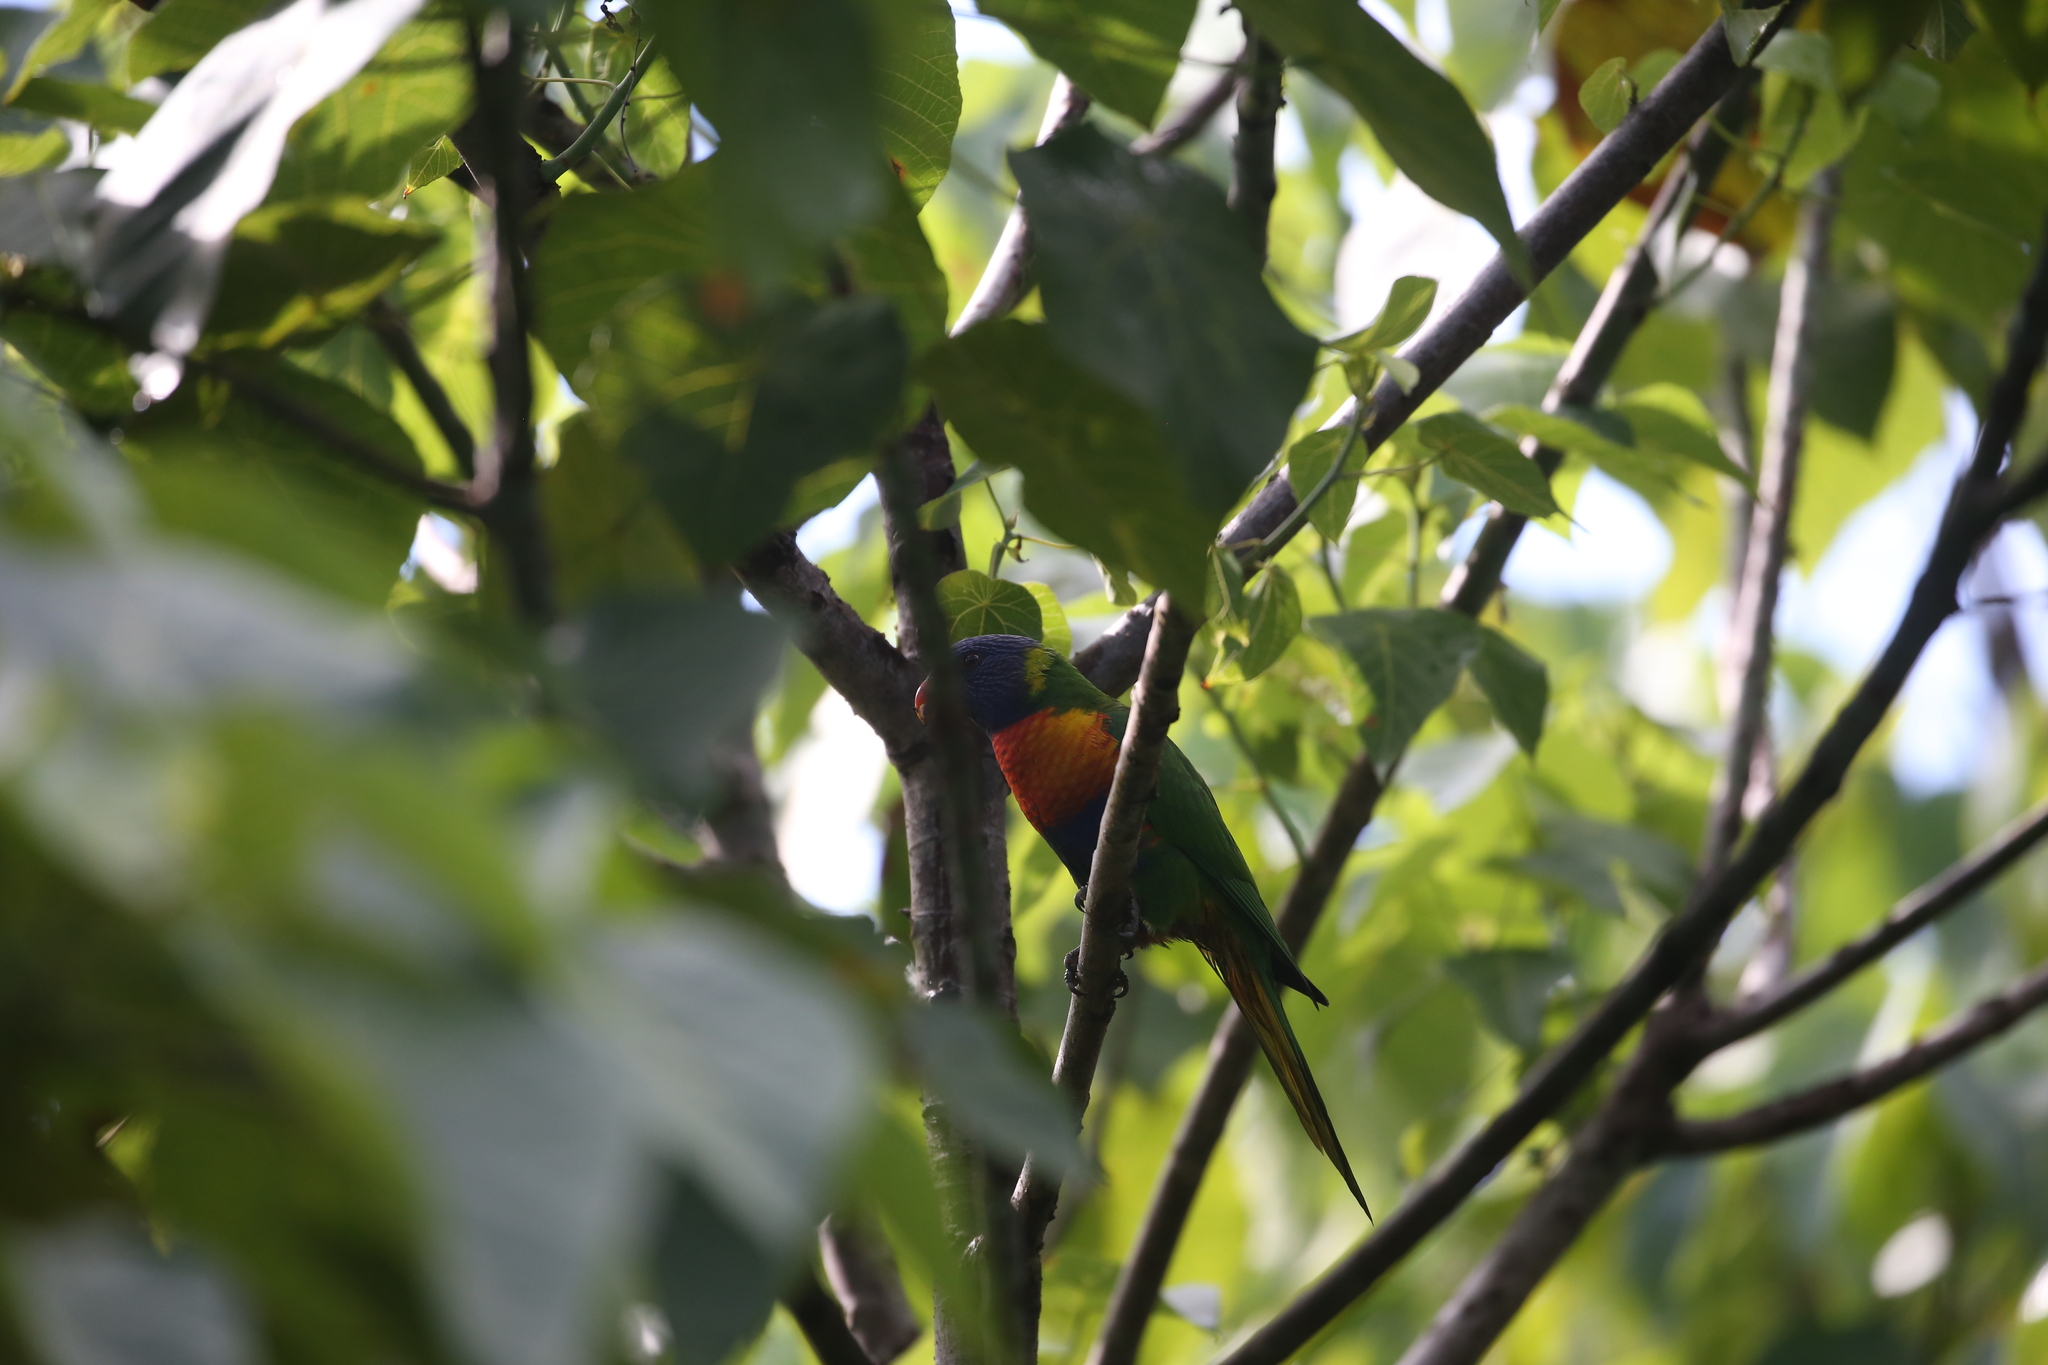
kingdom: Animalia
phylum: Chordata
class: Aves
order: Psittaciformes
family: Psittacidae
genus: Trichoglossus
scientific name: Trichoglossus haematodus
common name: Coconut lorikeet
